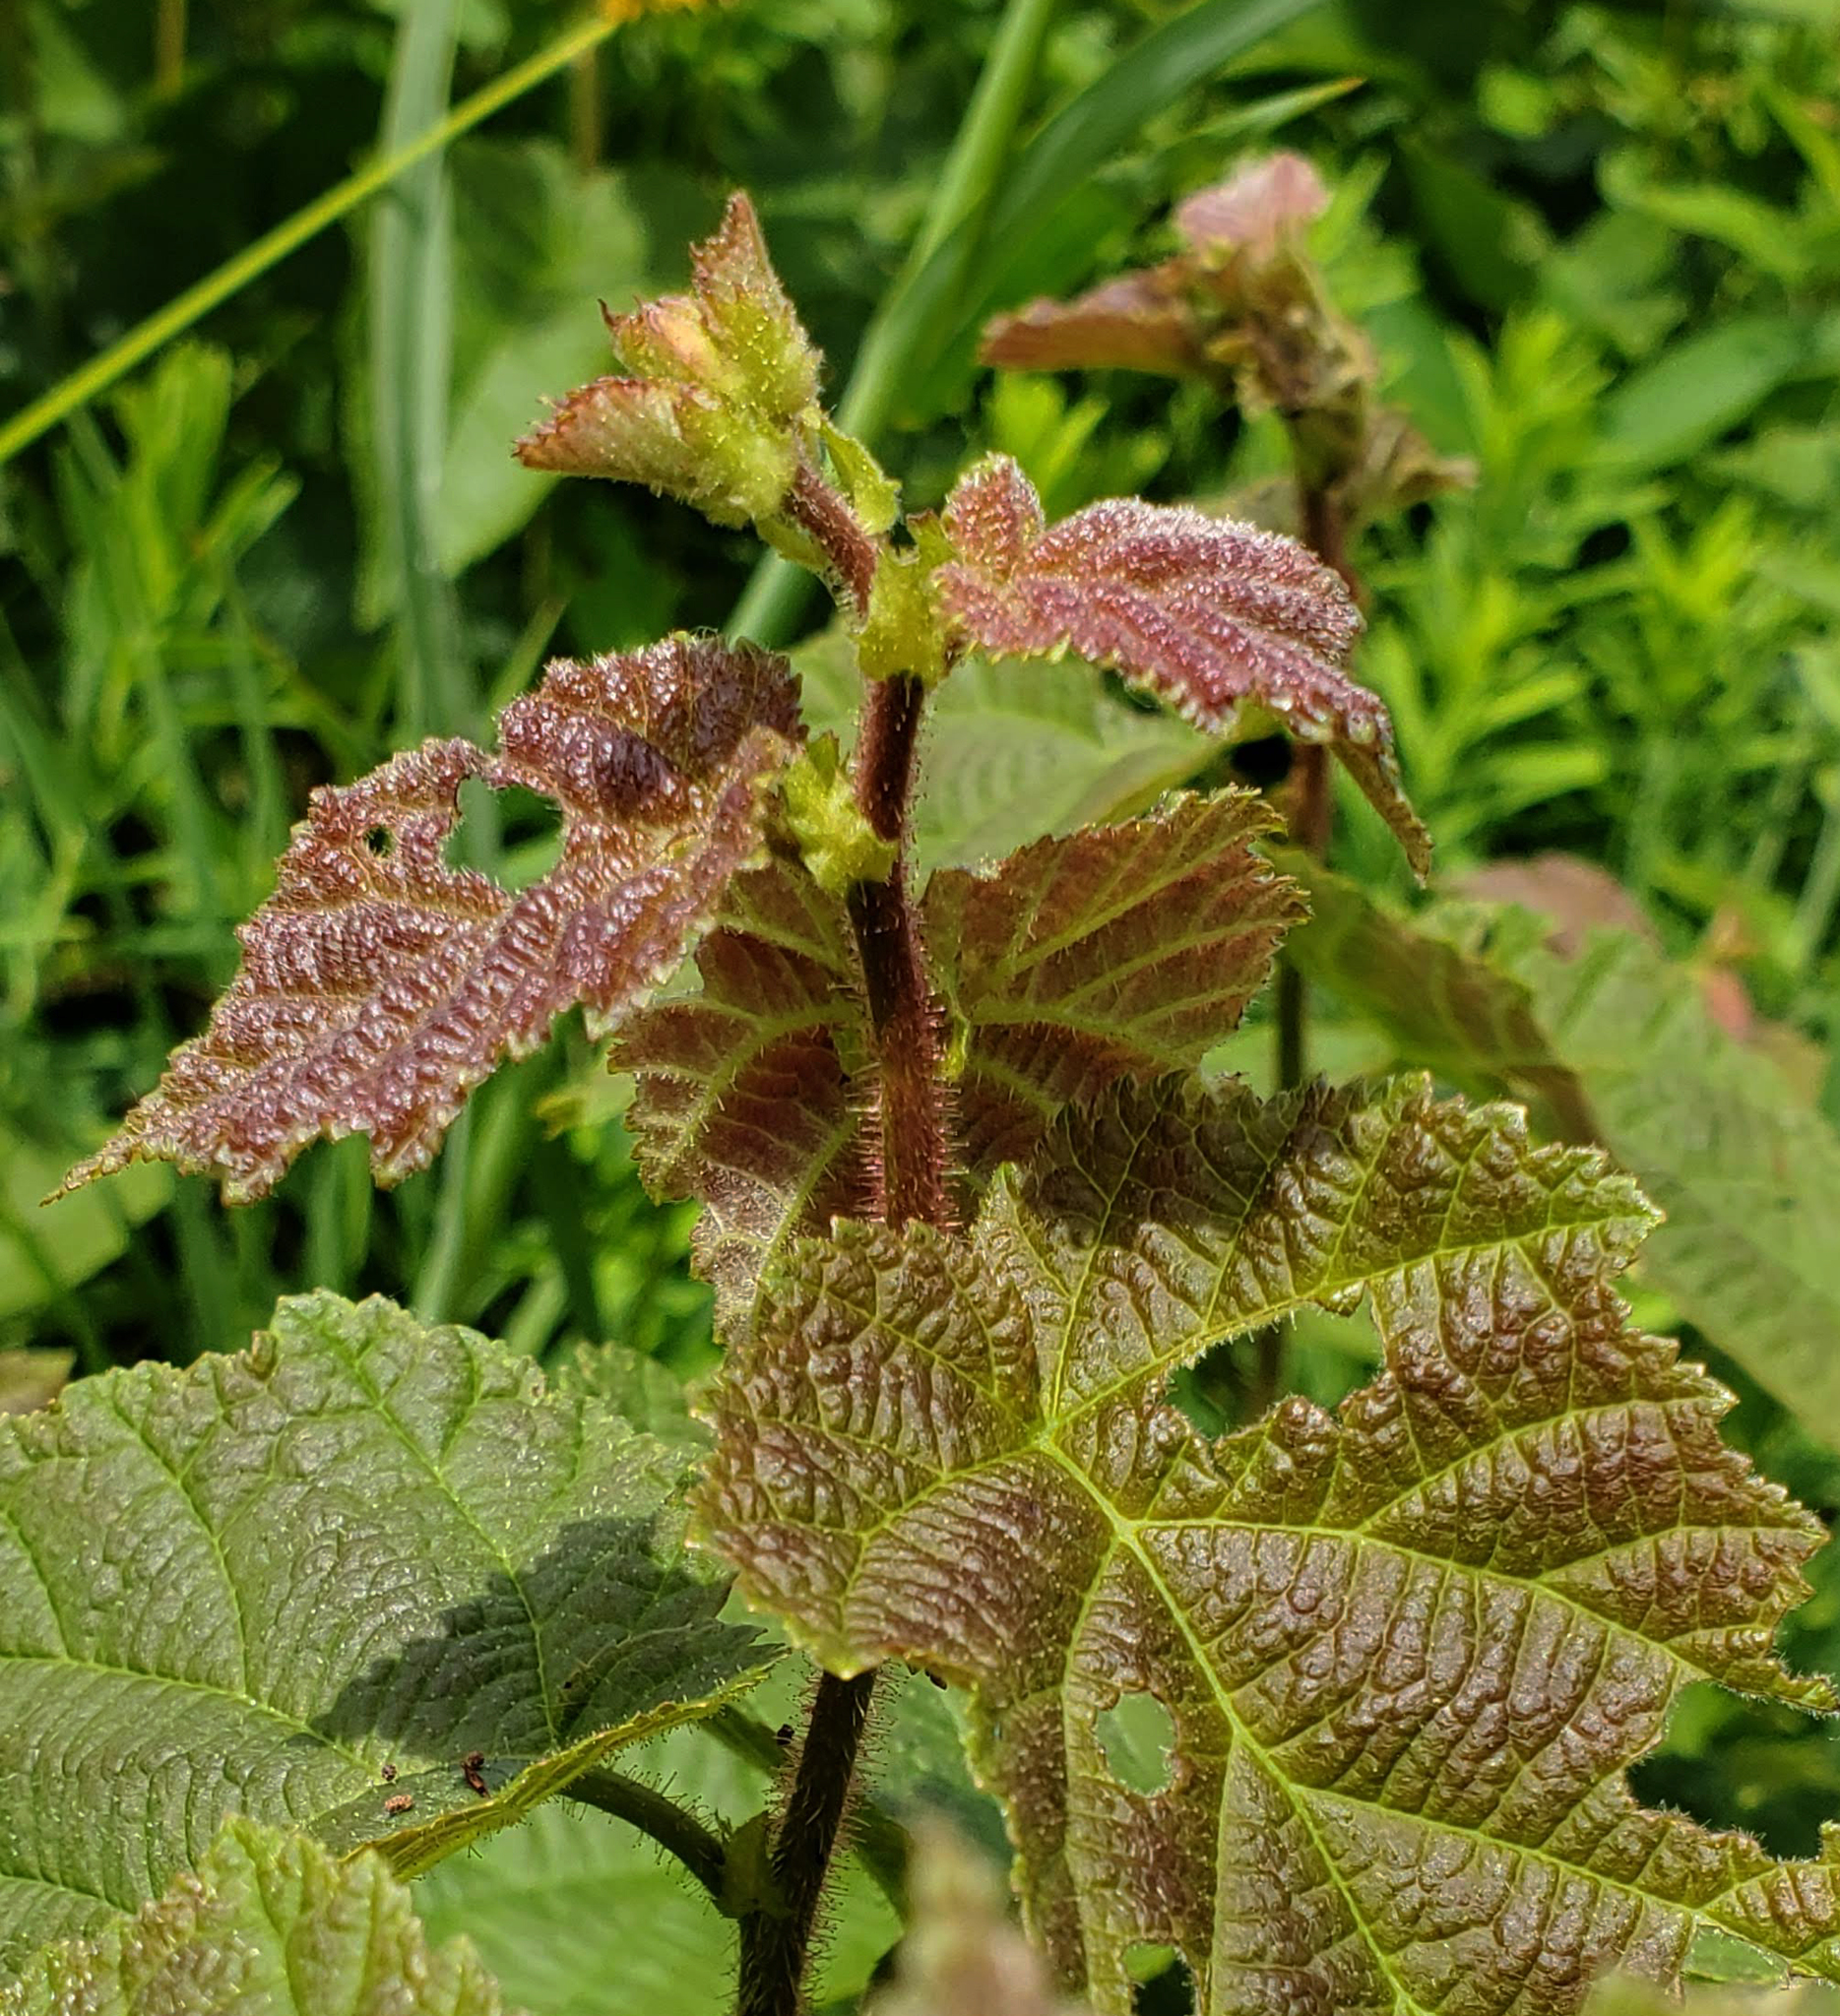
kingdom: Plantae
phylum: Tracheophyta
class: Magnoliopsida
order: Fagales
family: Betulaceae
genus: Corylus
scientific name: Corylus americana
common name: American hazel
